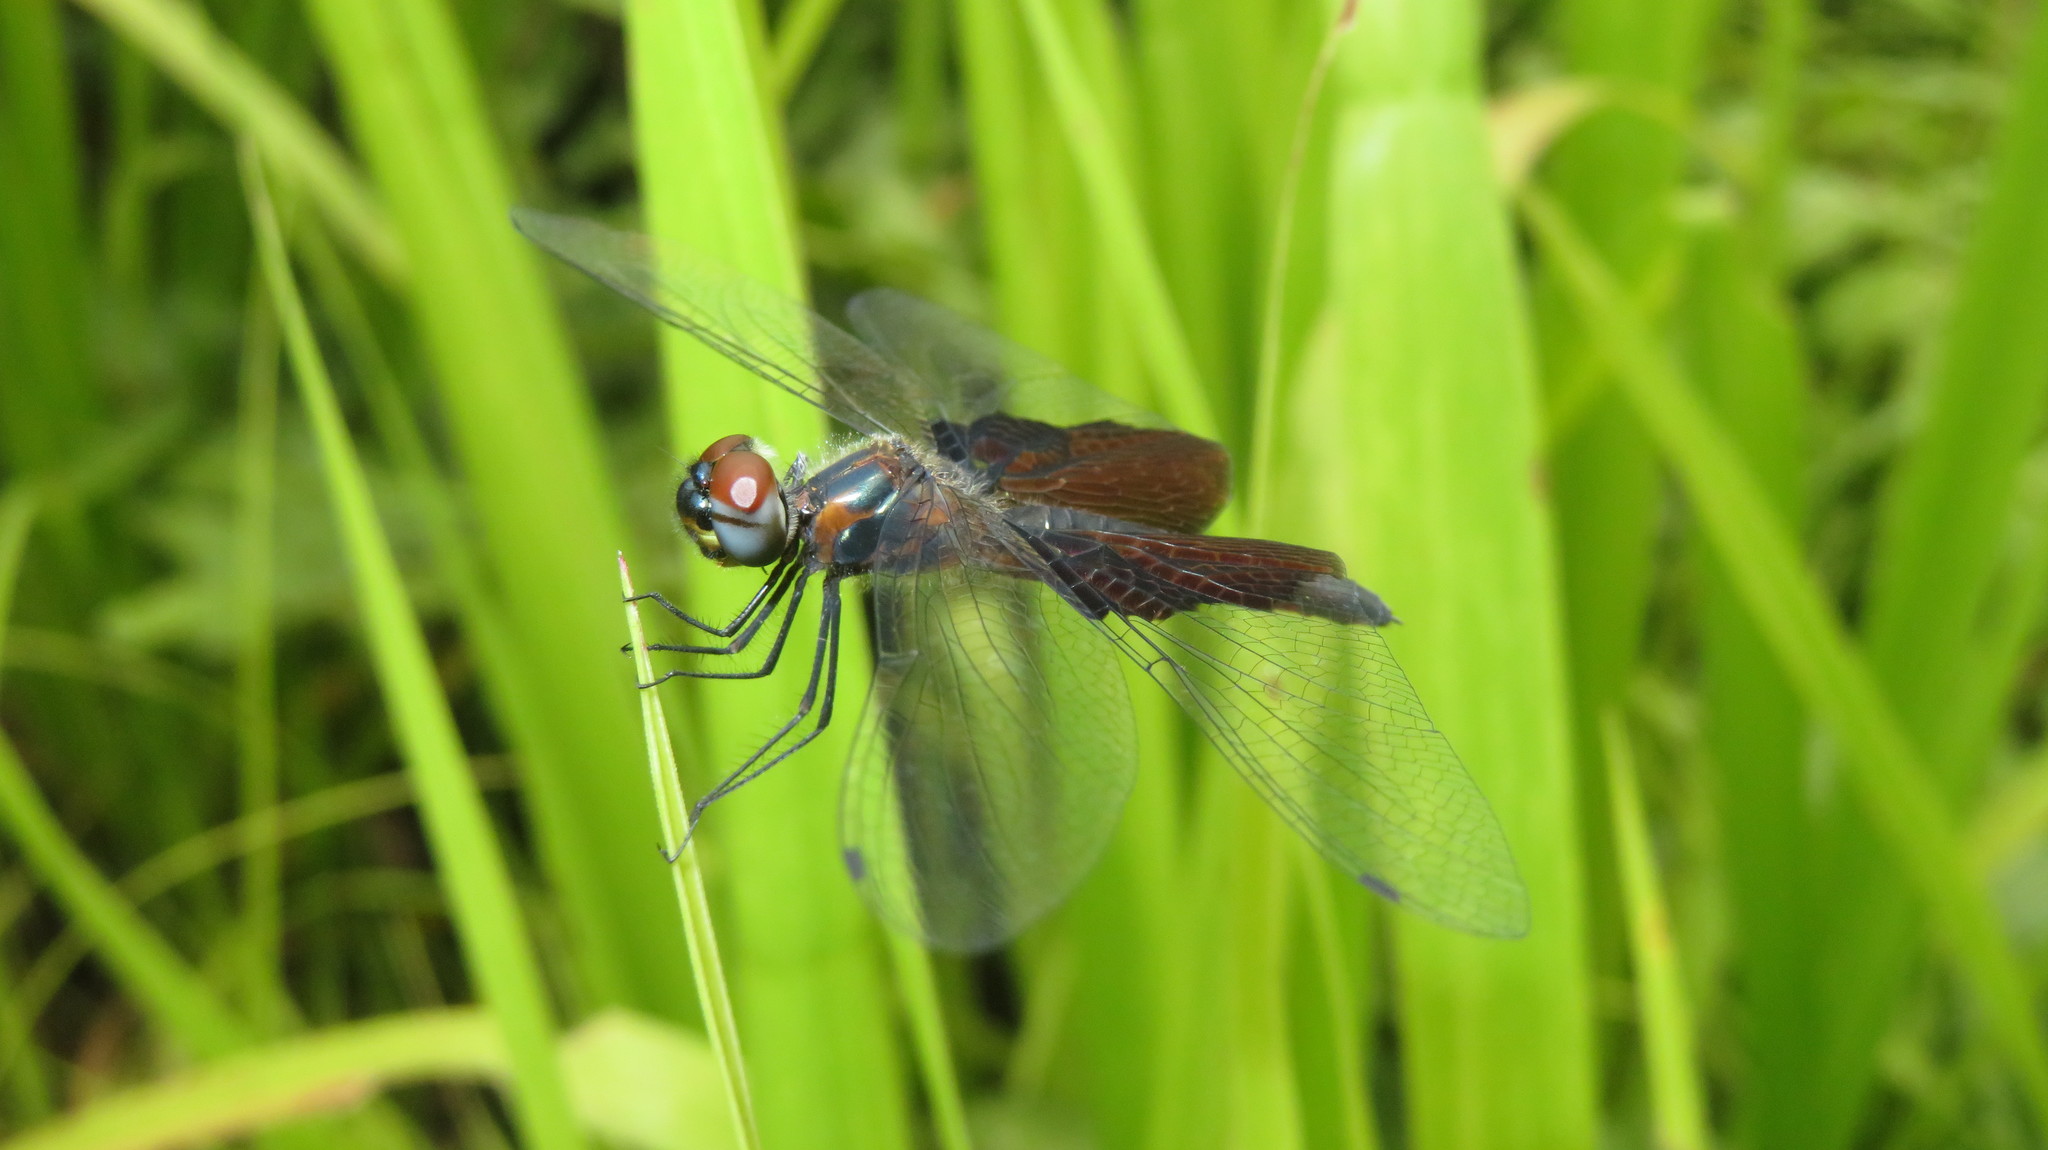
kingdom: Animalia
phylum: Arthropoda
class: Insecta
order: Odonata
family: Libellulidae
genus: Rhyothemis
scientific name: Rhyothemis semihyalina
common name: Phantom flutterer
